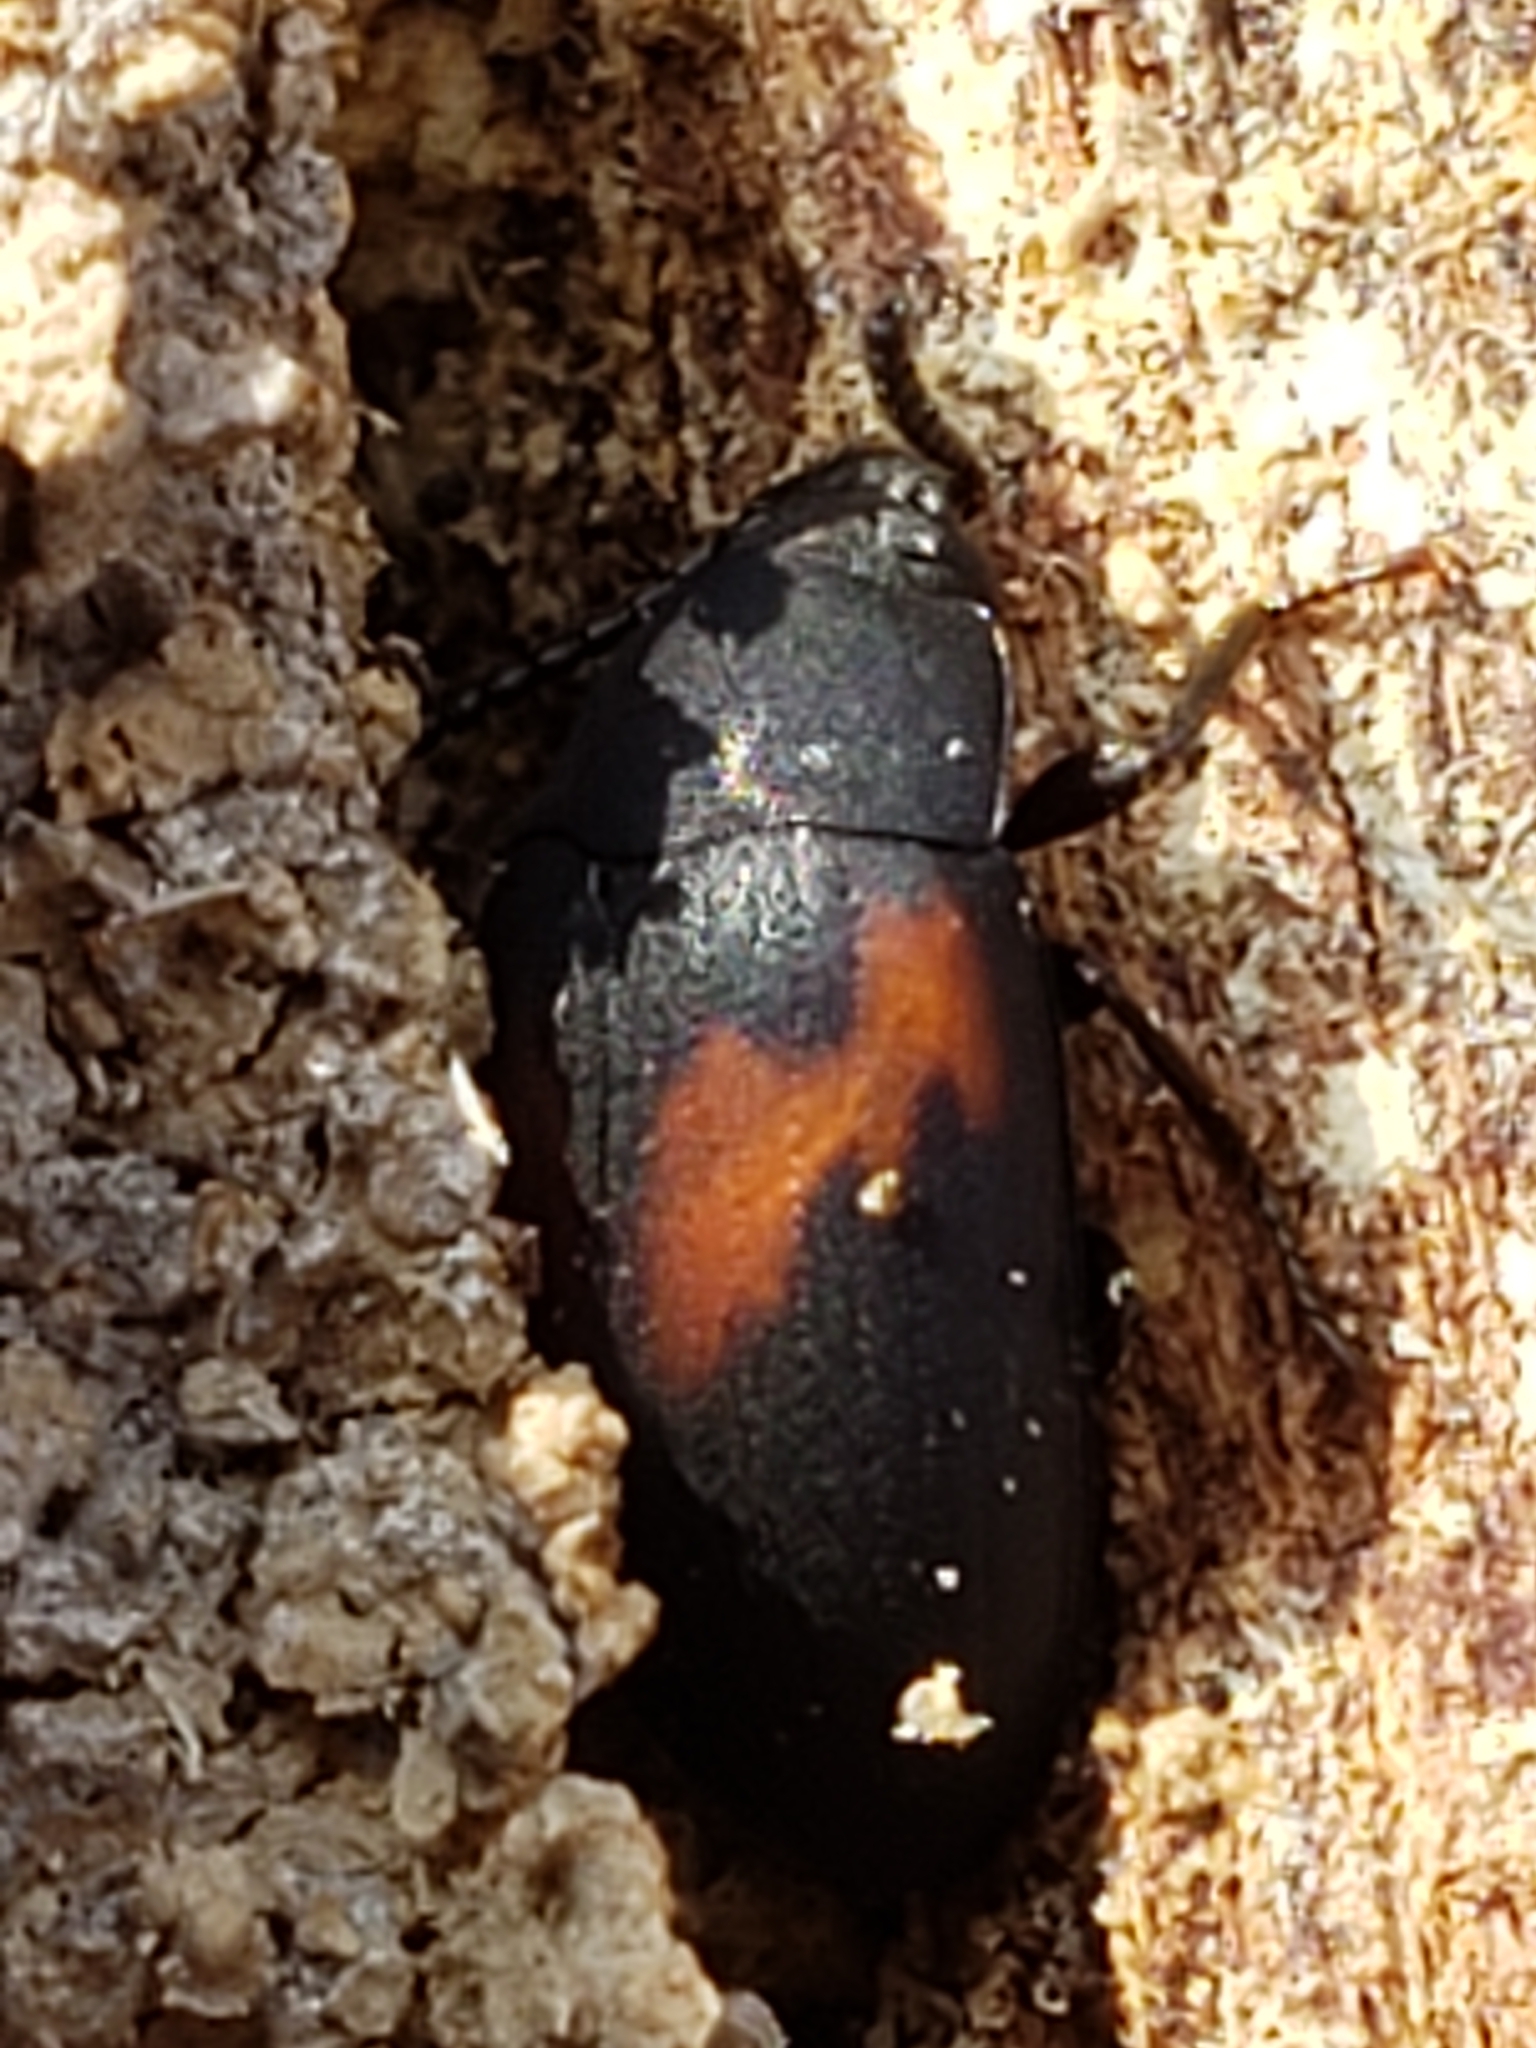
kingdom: Animalia
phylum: Arthropoda
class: Insecta
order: Coleoptera
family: Tenebrionidae
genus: Platydema
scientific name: Platydema elliptica
